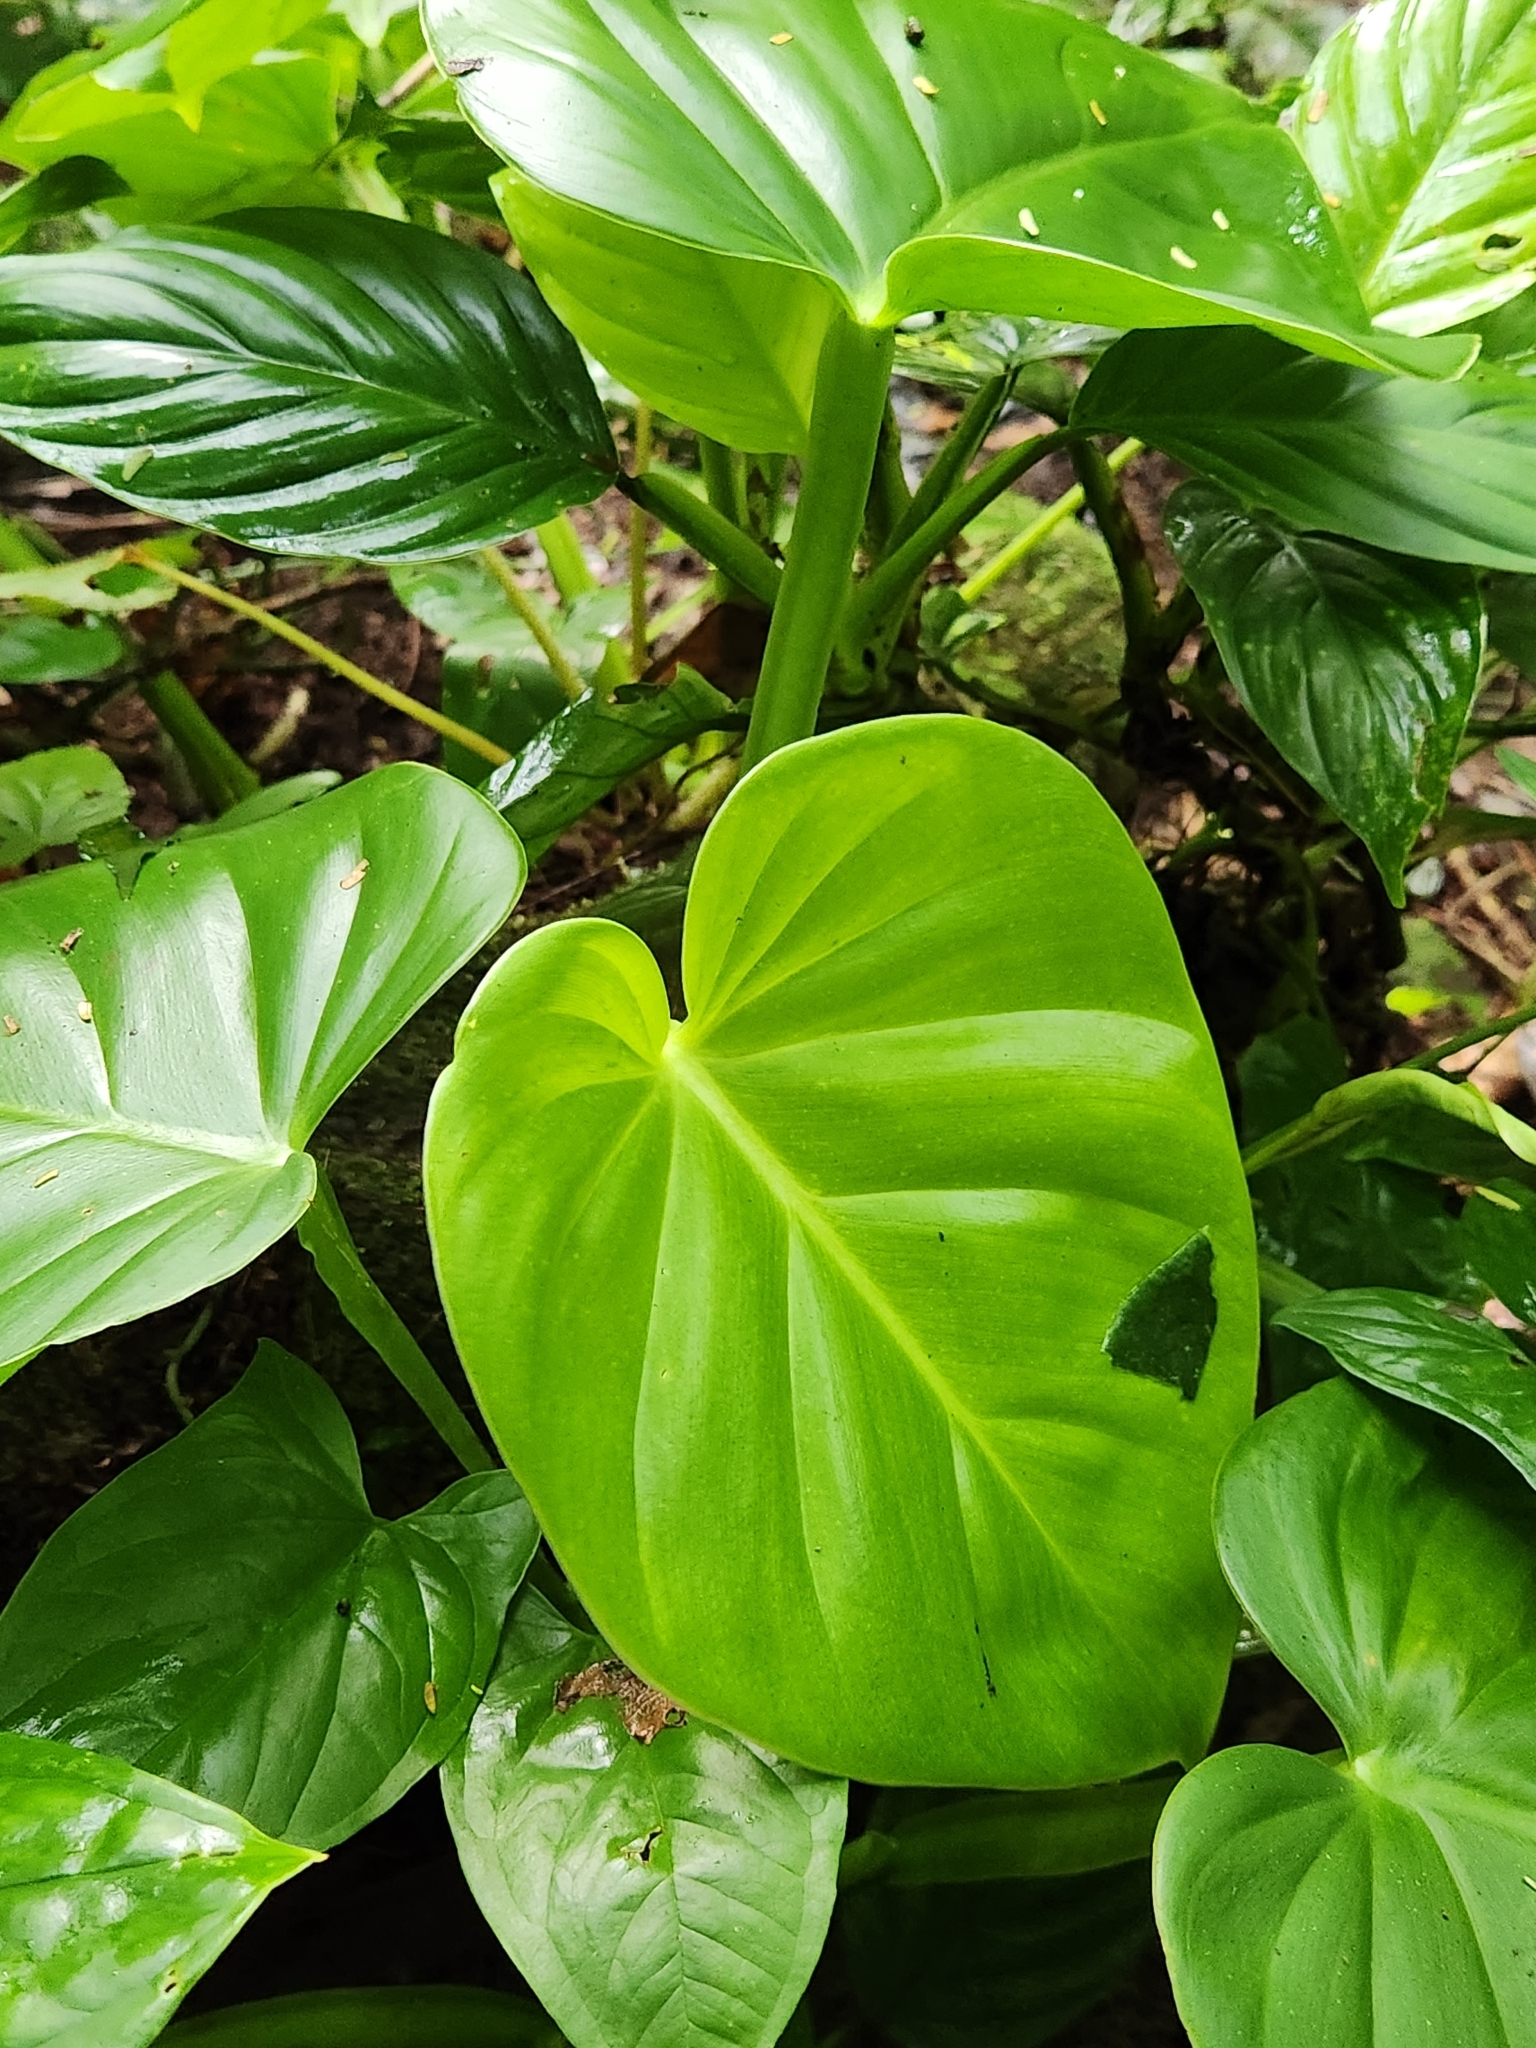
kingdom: Plantae
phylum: Tracheophyta
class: Liliopsida
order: Alismatales
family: Araceae
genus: Philodendron
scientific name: Philodendron findens
